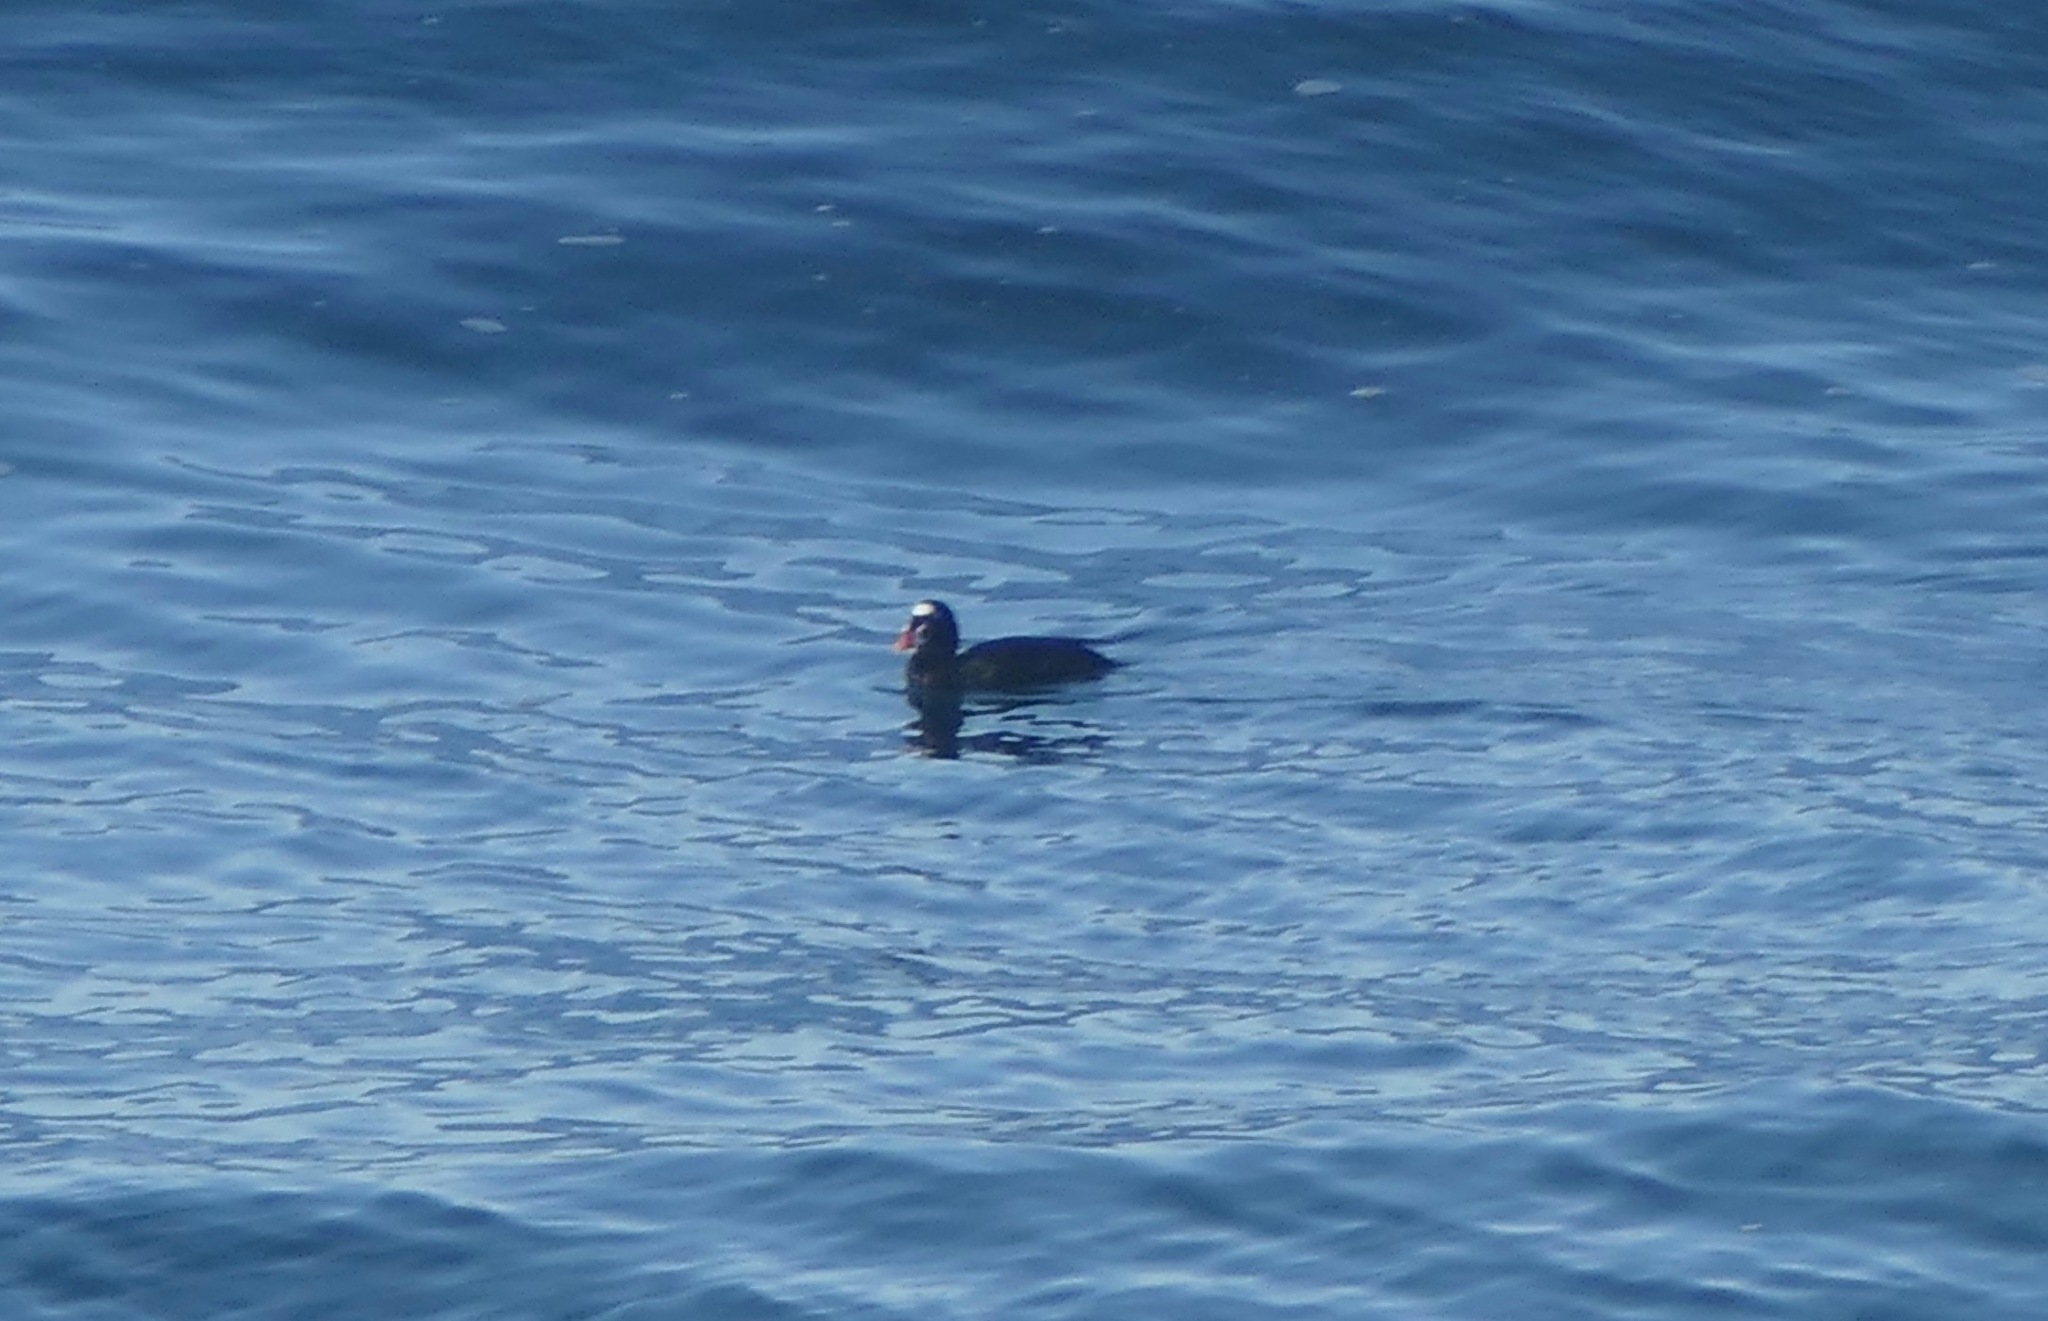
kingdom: Animalia
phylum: Chordata
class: Aves
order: Anseriformes
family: Anatidae
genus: Melanitta
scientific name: Melanitta perspicillata
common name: Surf scoter
